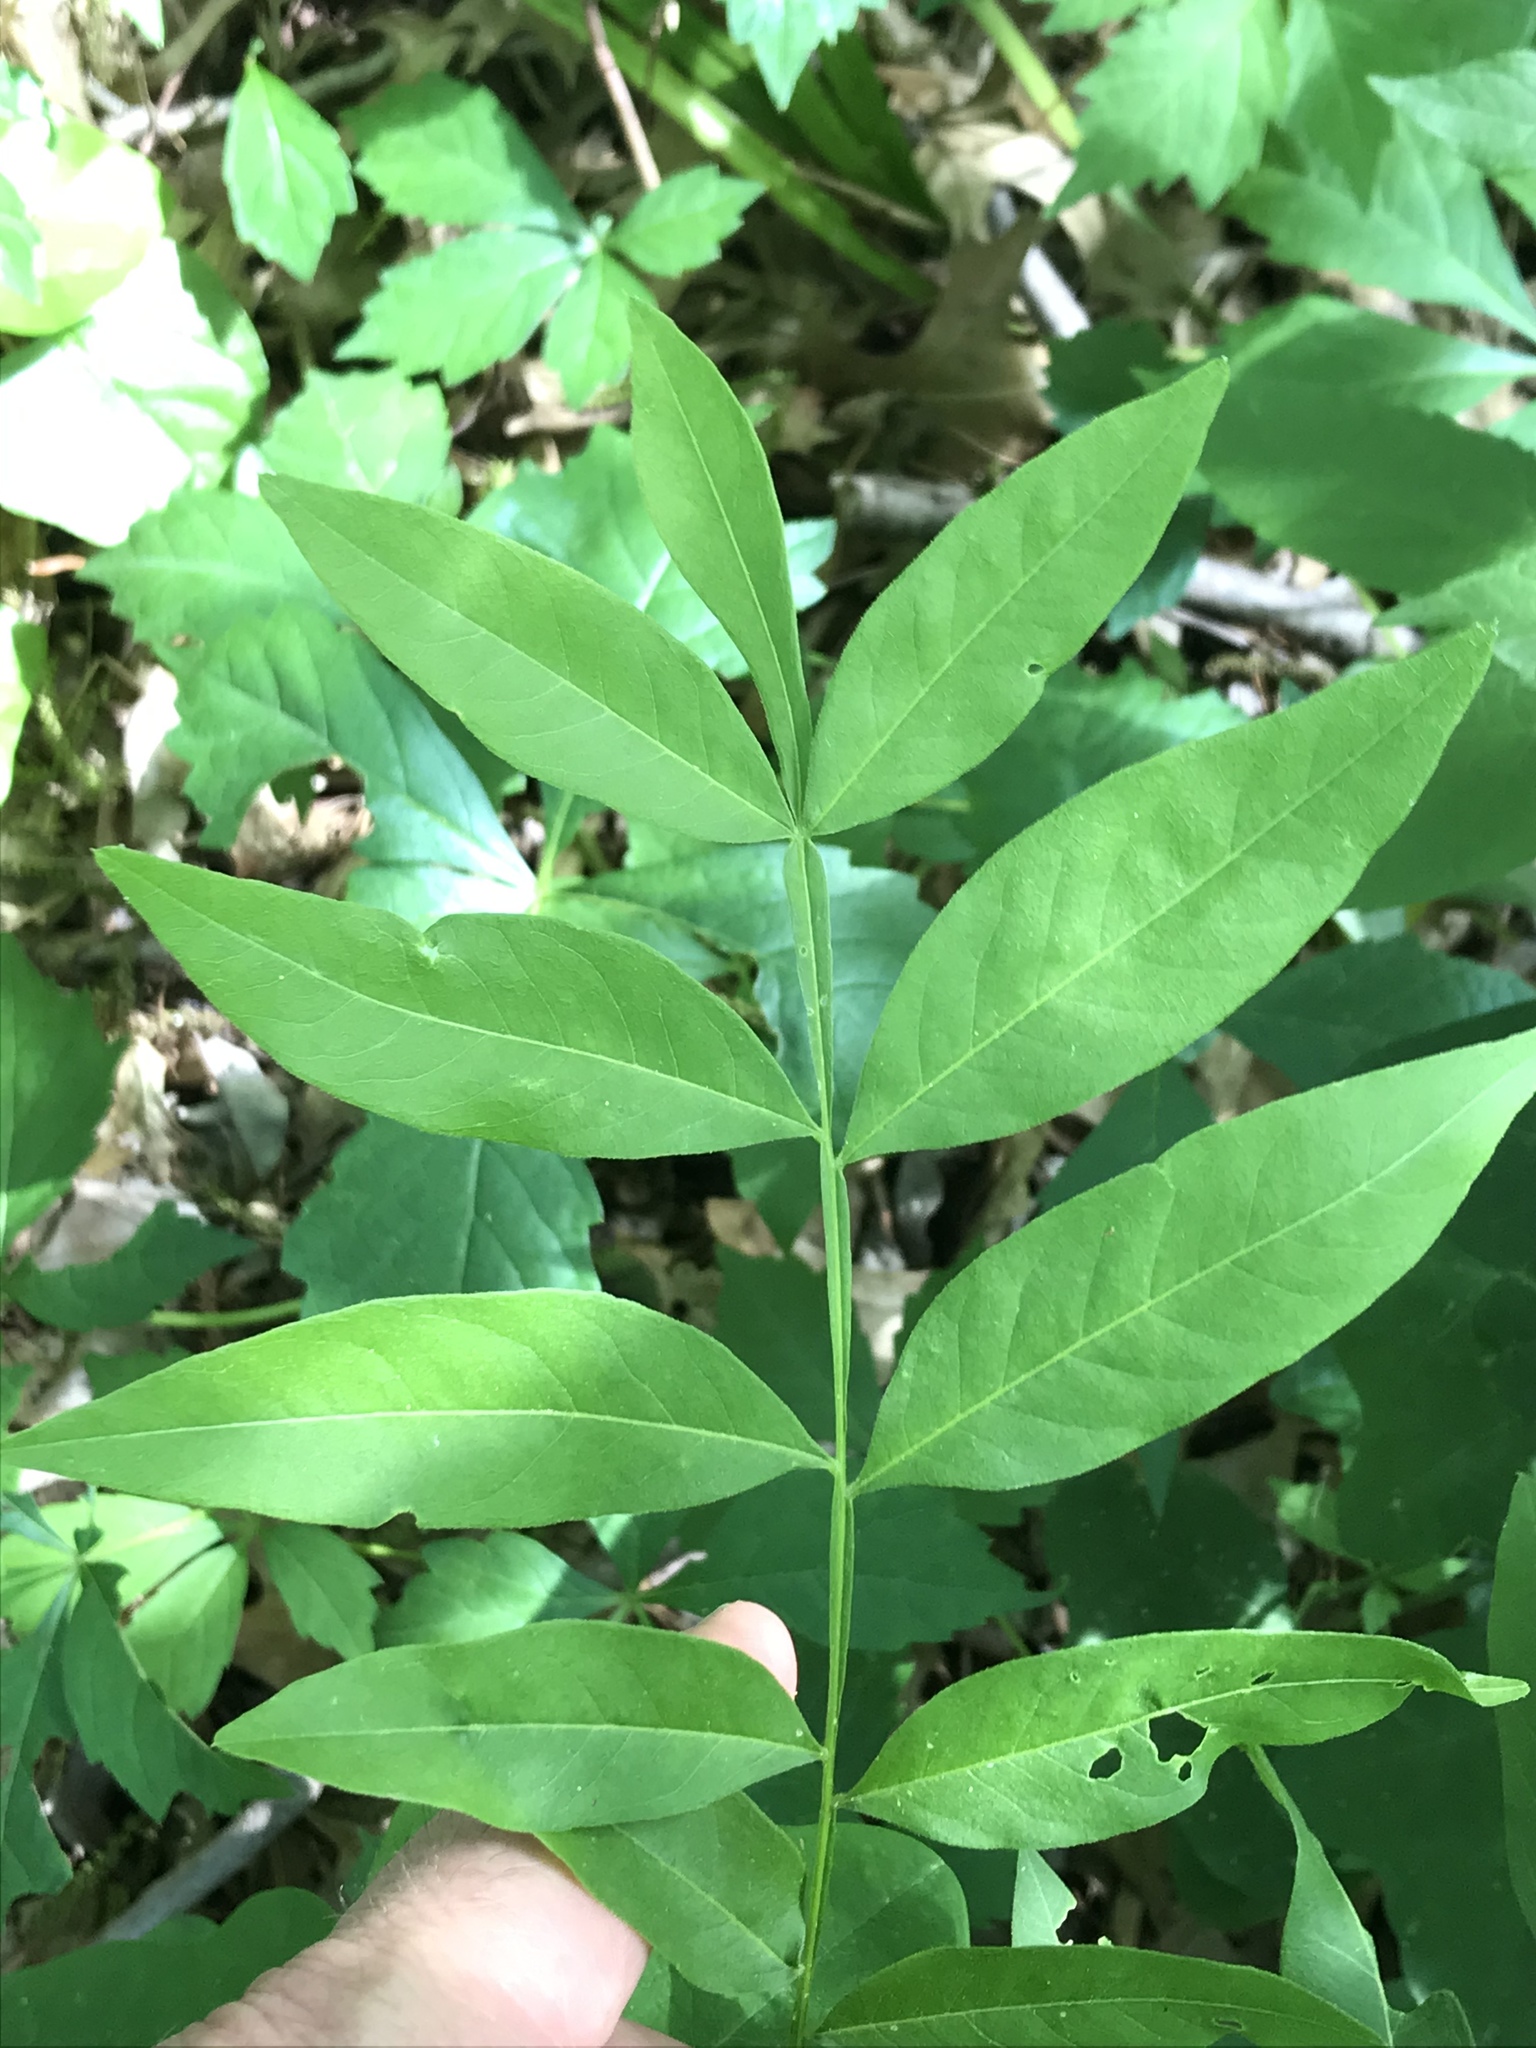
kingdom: Plantae
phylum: Tracheophyta
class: Magnoliopsida
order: Sapindales
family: Sapindaceae
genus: Sapindus
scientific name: Sapindus drummondii
